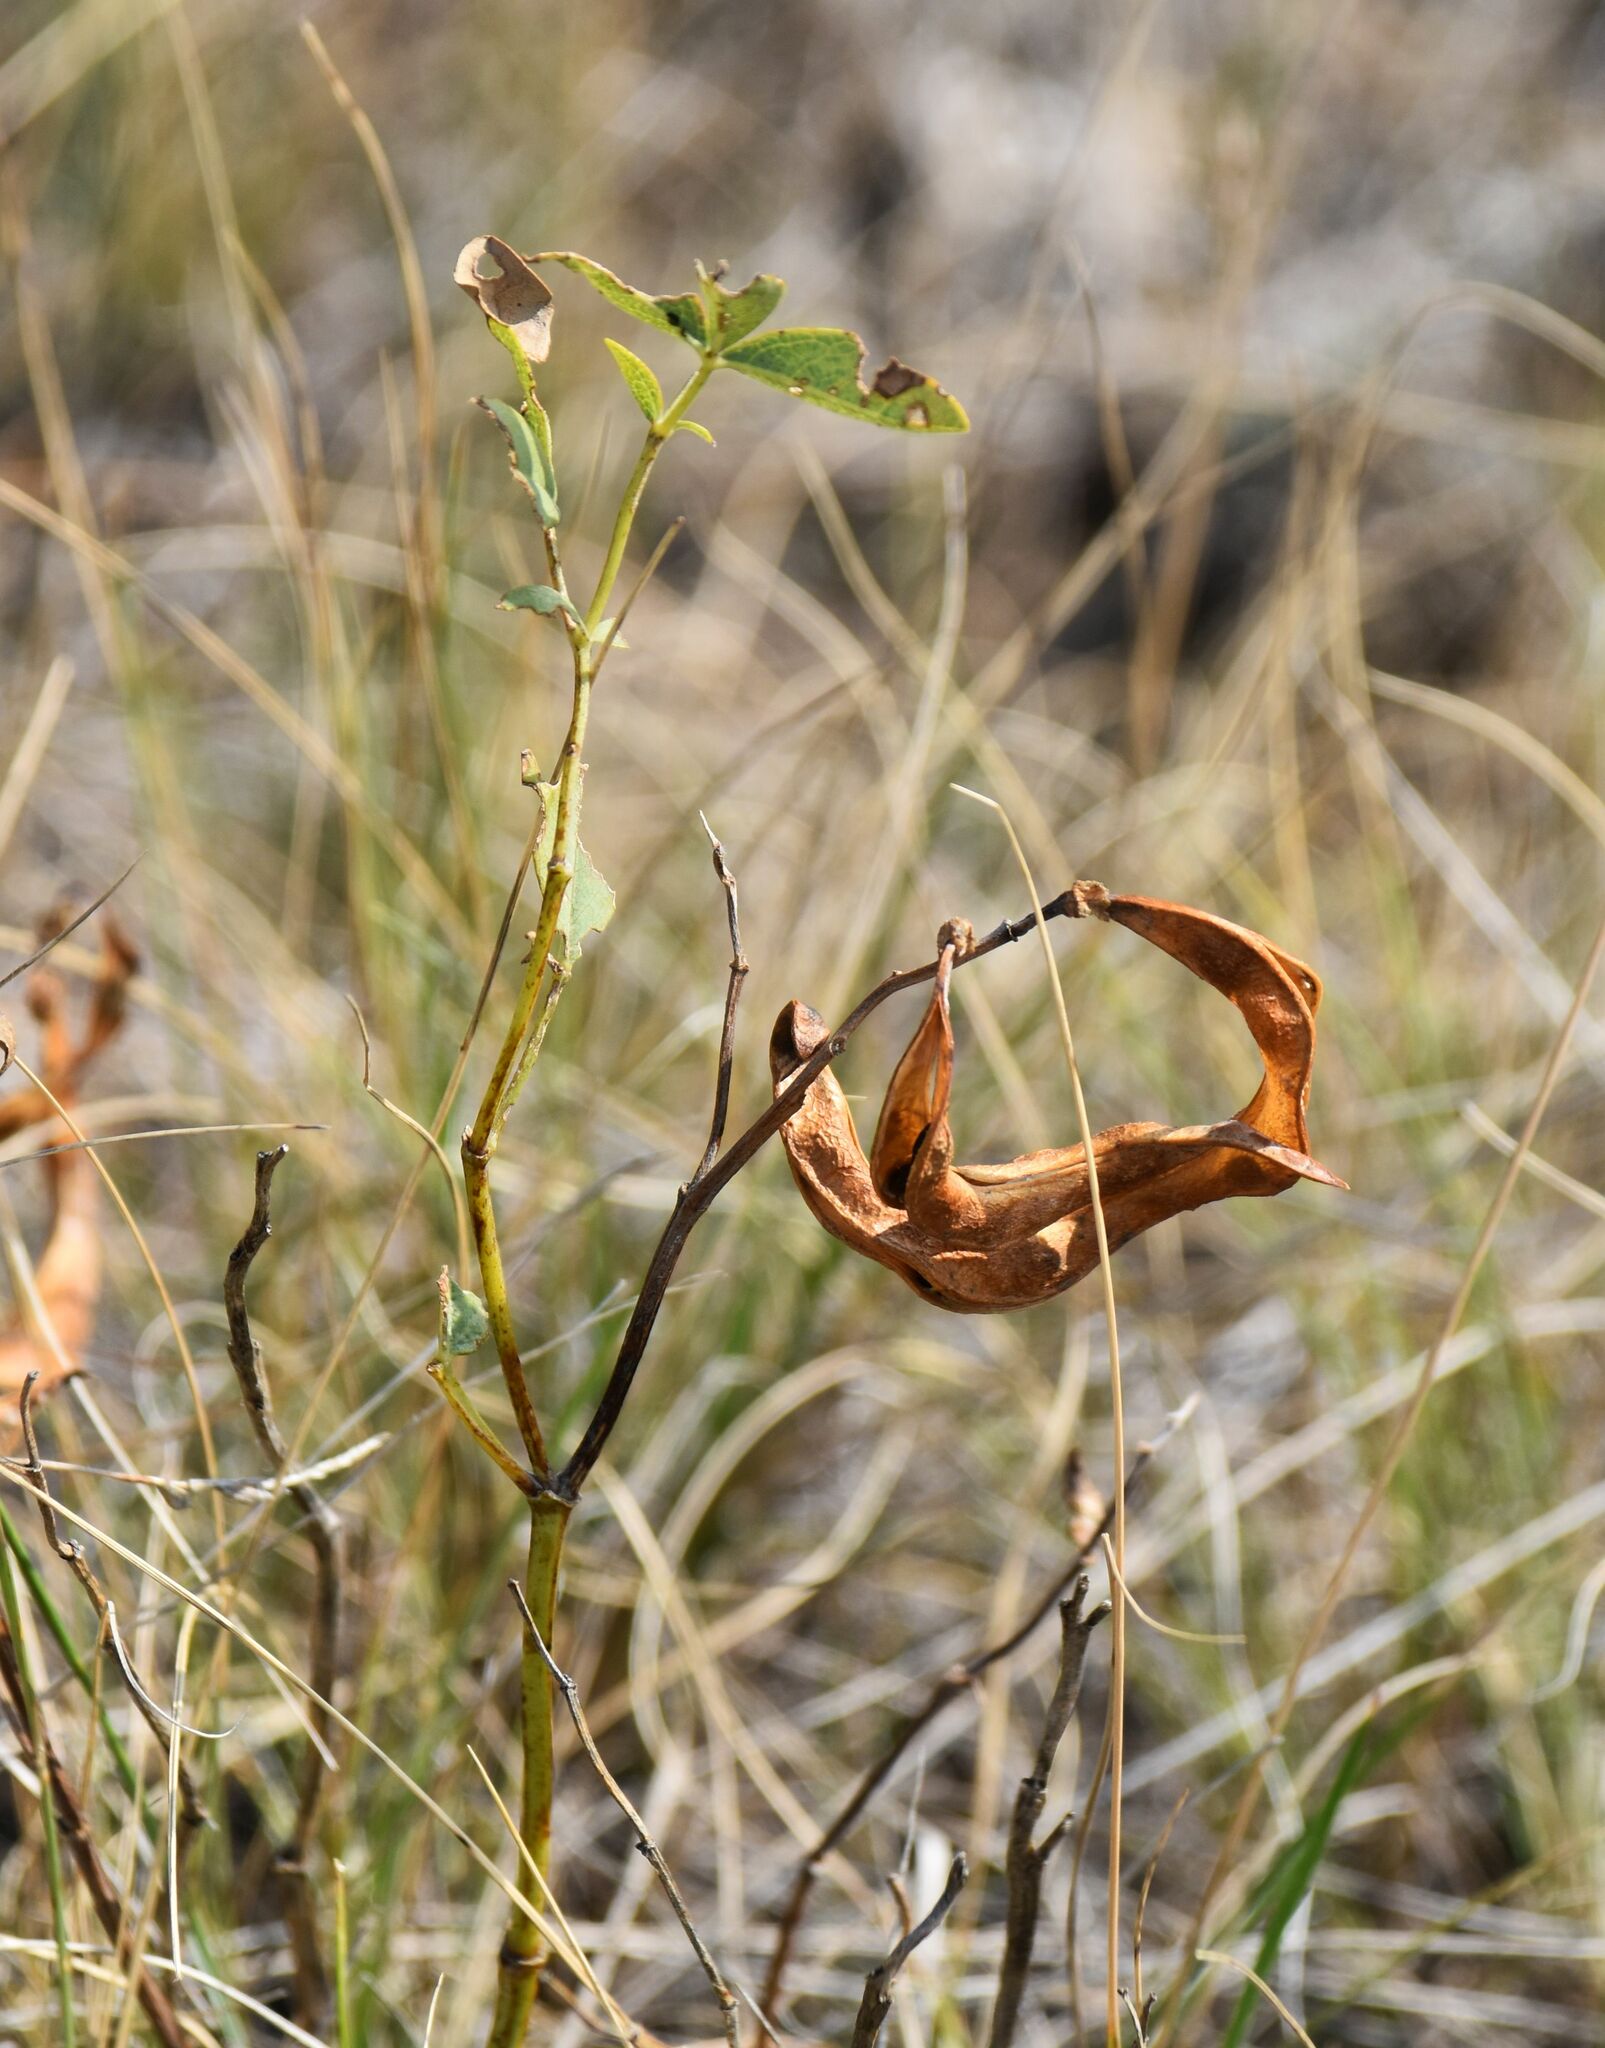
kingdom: Plantae
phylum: Tracheophyta
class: Magnoliopsida
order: Fabales
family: Fabaceae
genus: Thermopsis
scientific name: Thermopsis rhombifolia
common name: Circle-pod-pea
